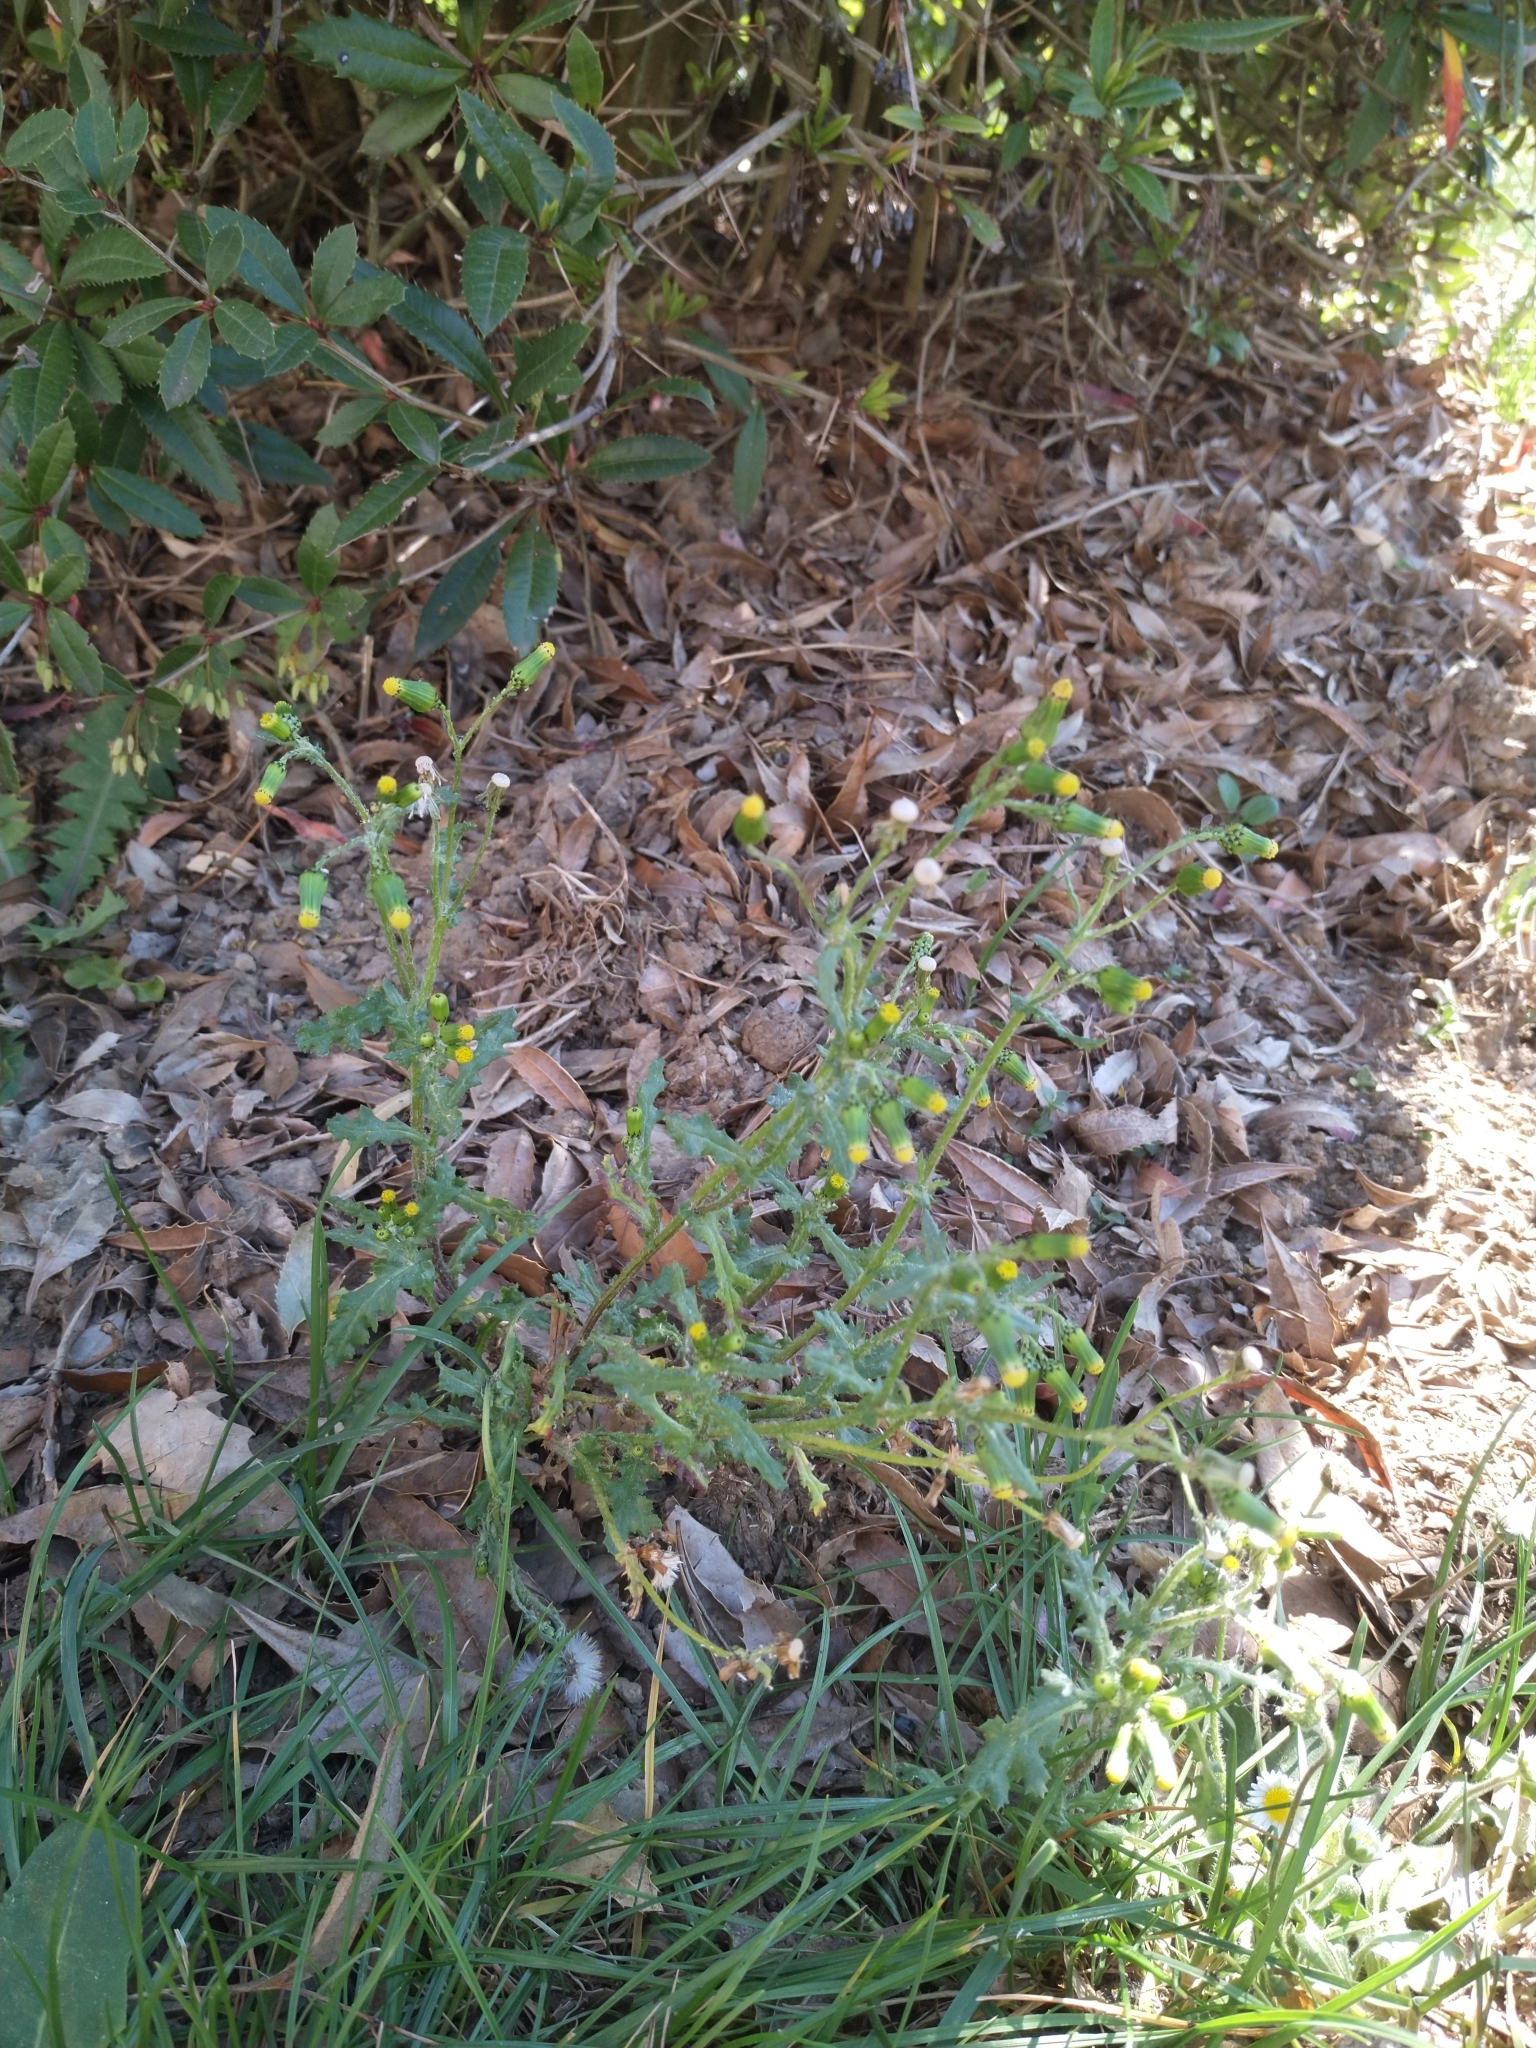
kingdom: Plantae
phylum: Tracheophyta
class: Magnoliopsida
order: Asterales
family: Asteraceae
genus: Senecio
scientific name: Senecio vulgaris
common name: Old-man-in-the-spring
